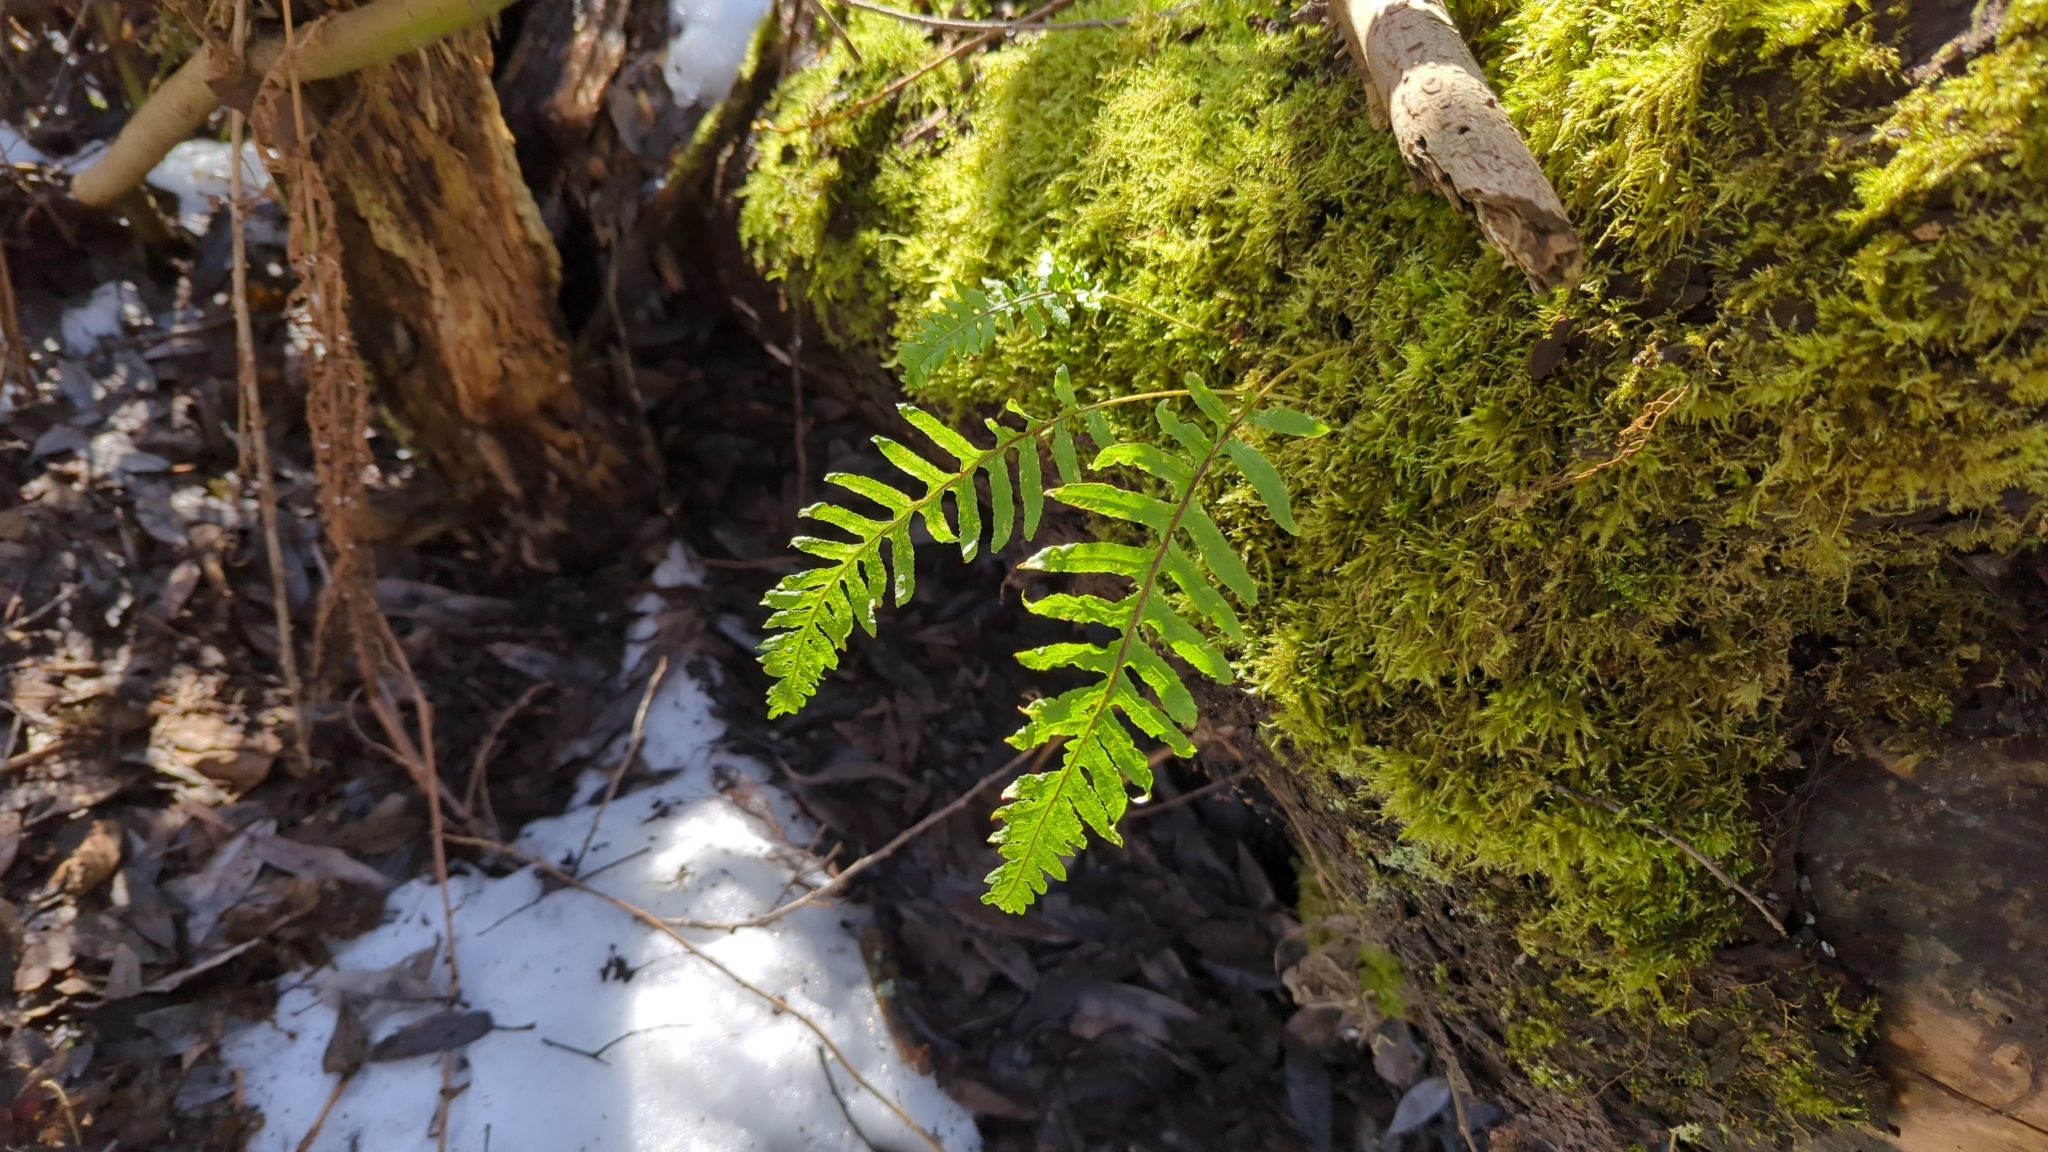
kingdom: Plantae
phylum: Tracheophyta
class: Polypodiopsida
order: Polypodiales
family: Polypodiaceae
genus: Polypodium
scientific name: Polypodium glycyrrhiza
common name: Licorice fern
